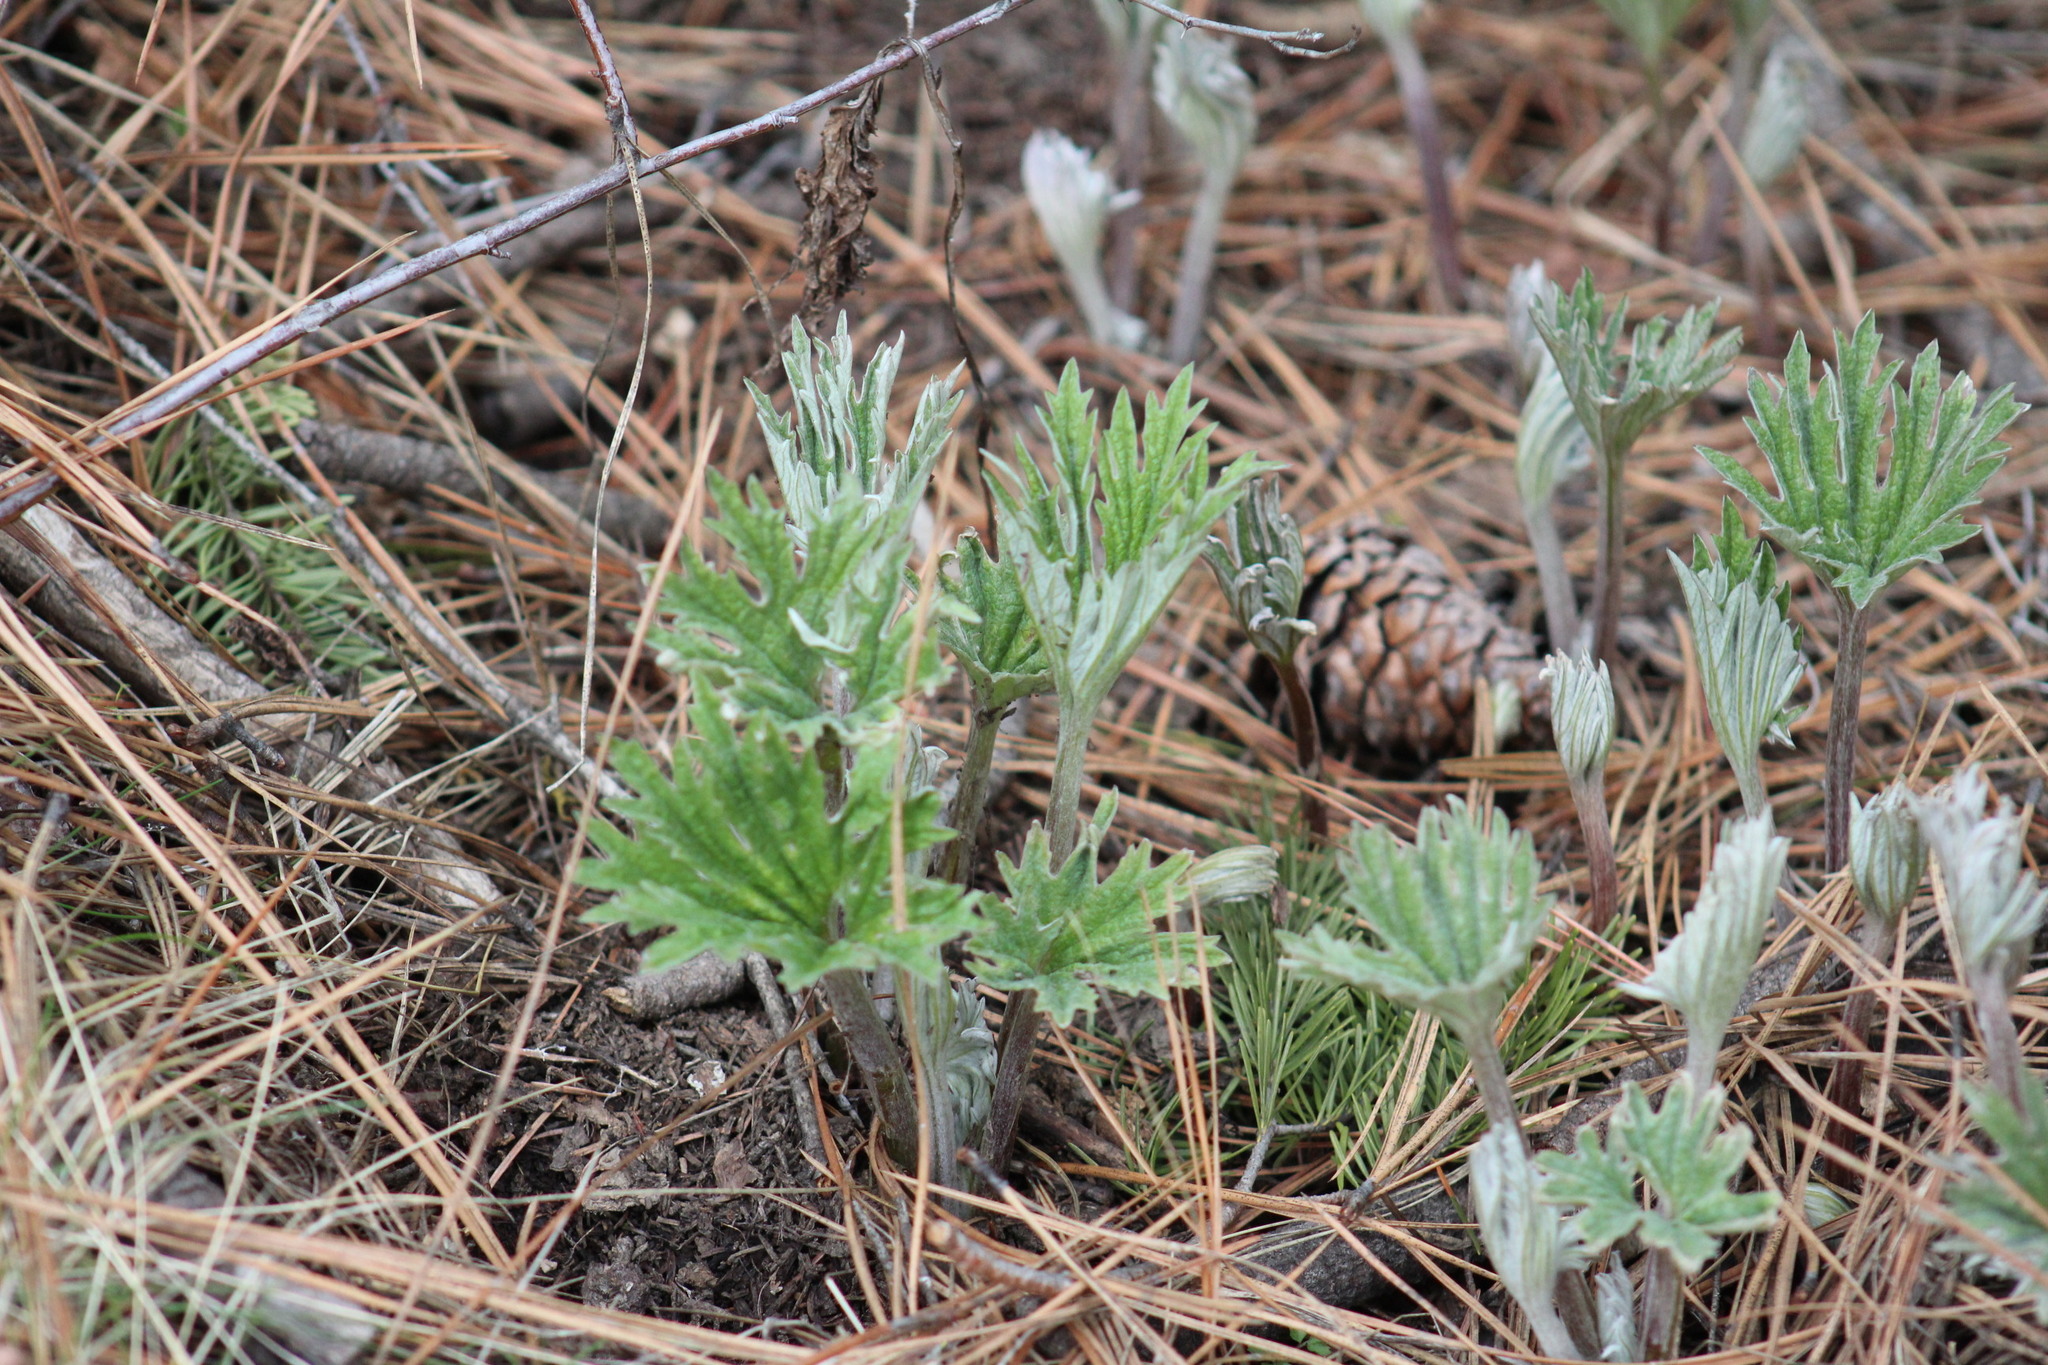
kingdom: Plantae
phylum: Tracheophyta
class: Magnoliopsida
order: Asterales
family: Asteraceae
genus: Cacaliopsis
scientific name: Cacaliopsis nardosmia
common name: Silvercrown
